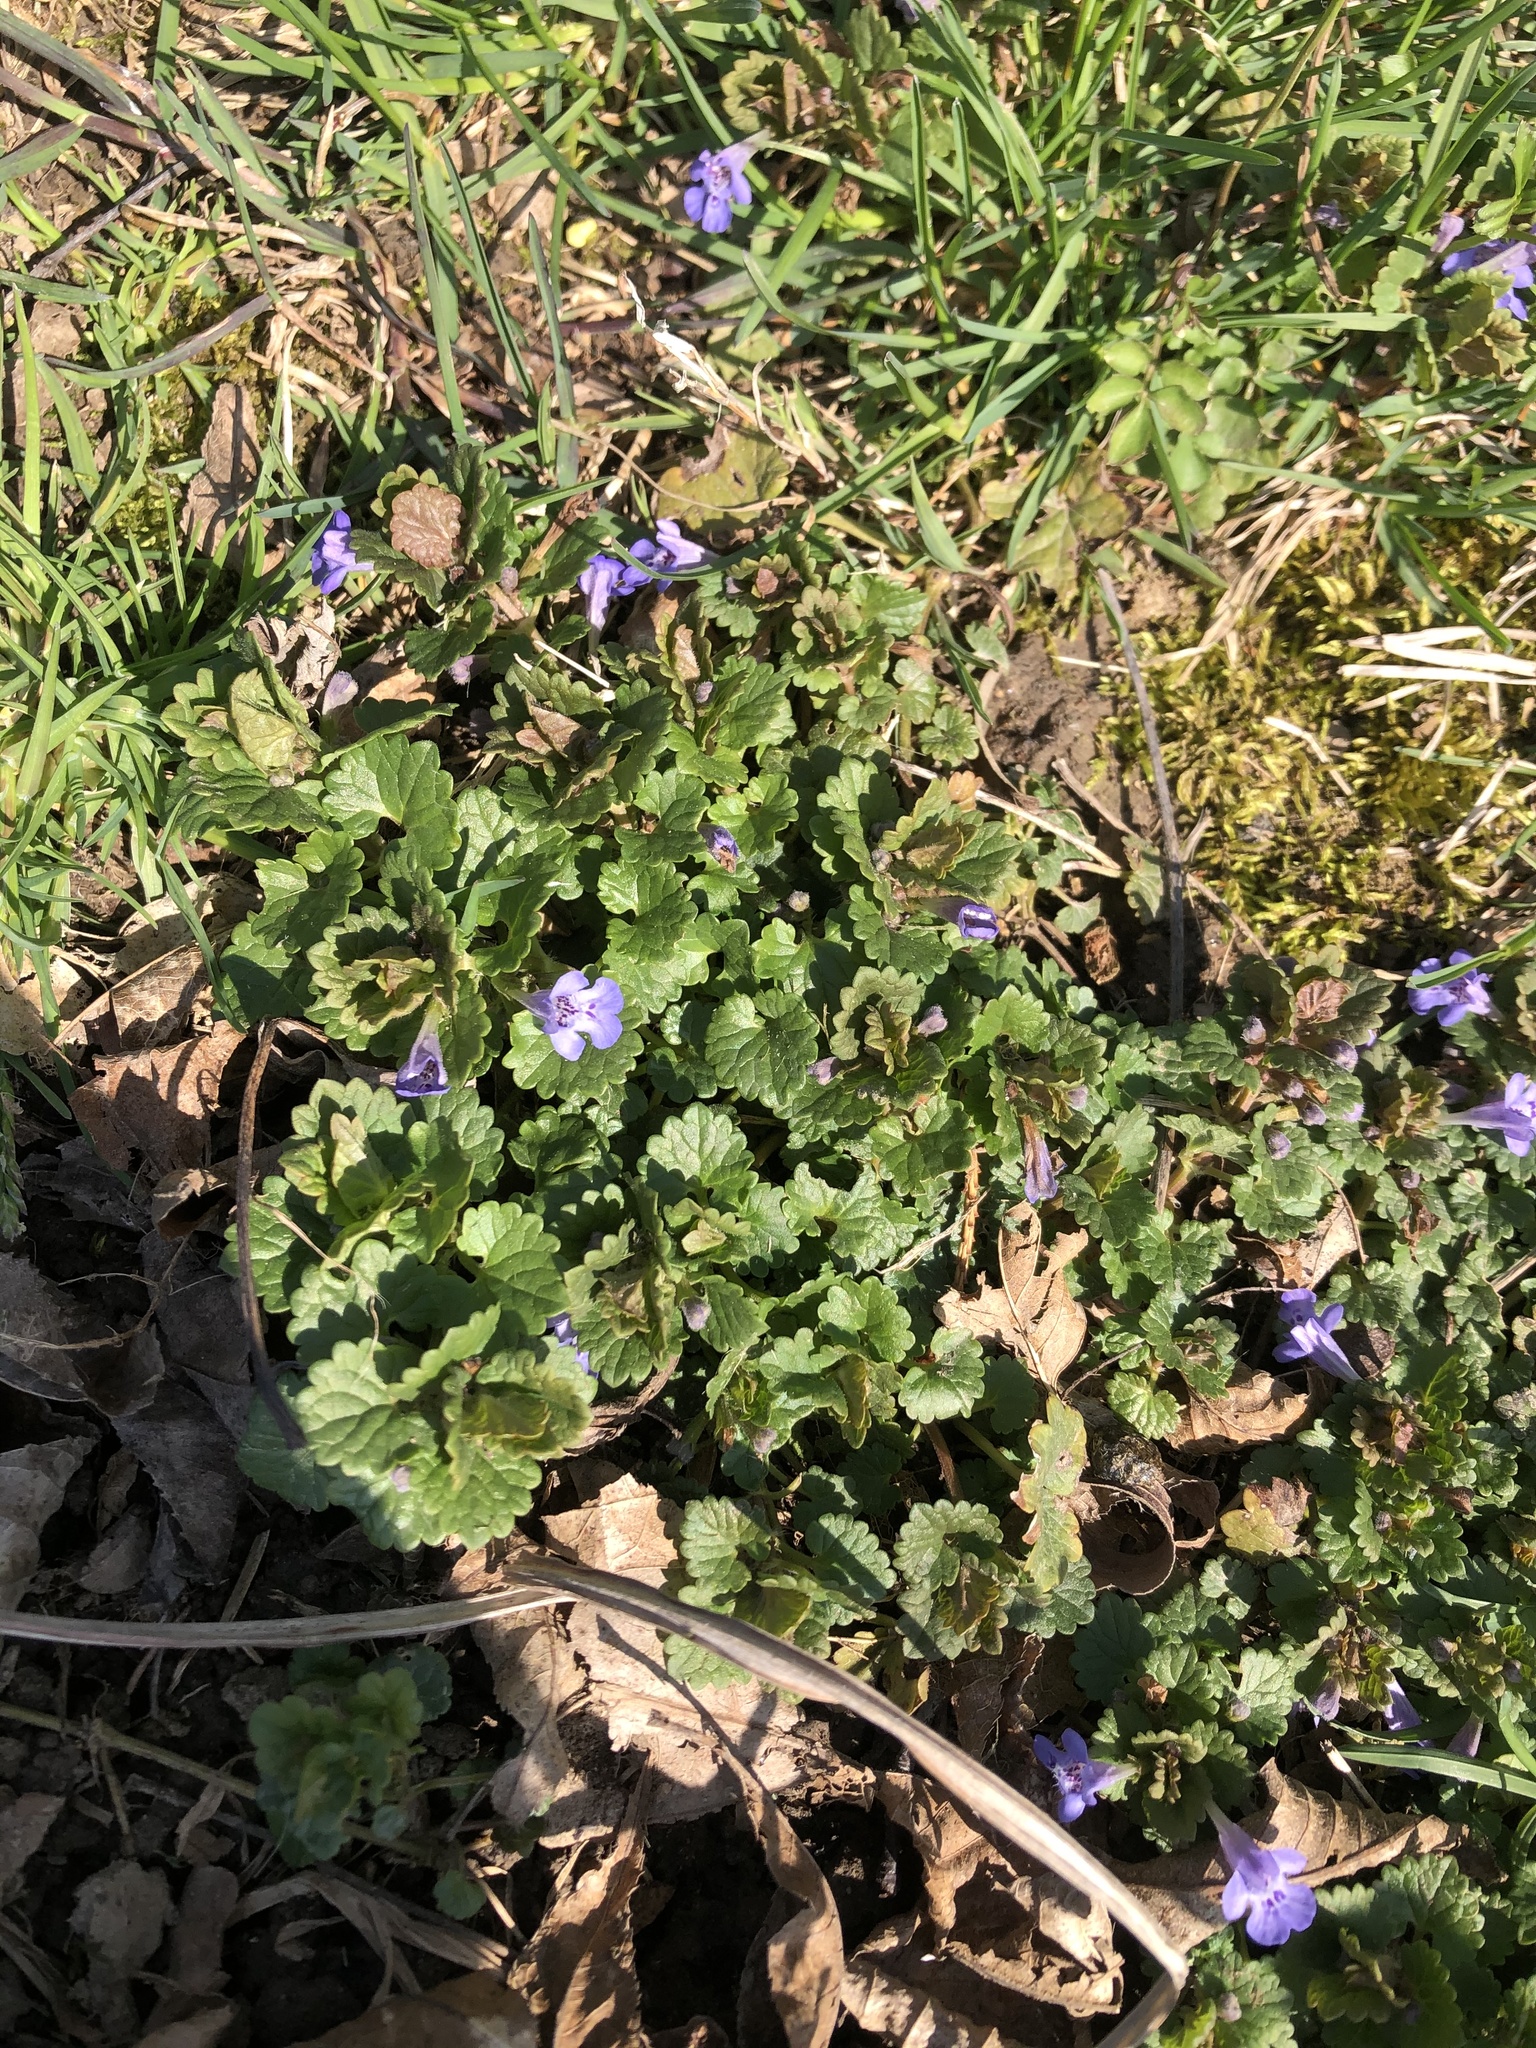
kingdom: Plantae
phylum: Tracheophyta
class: Magnoliopsida
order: Lamiales
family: Lamiaceae
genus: Glechoma
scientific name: Glechoma hederacea
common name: Ground ivy
